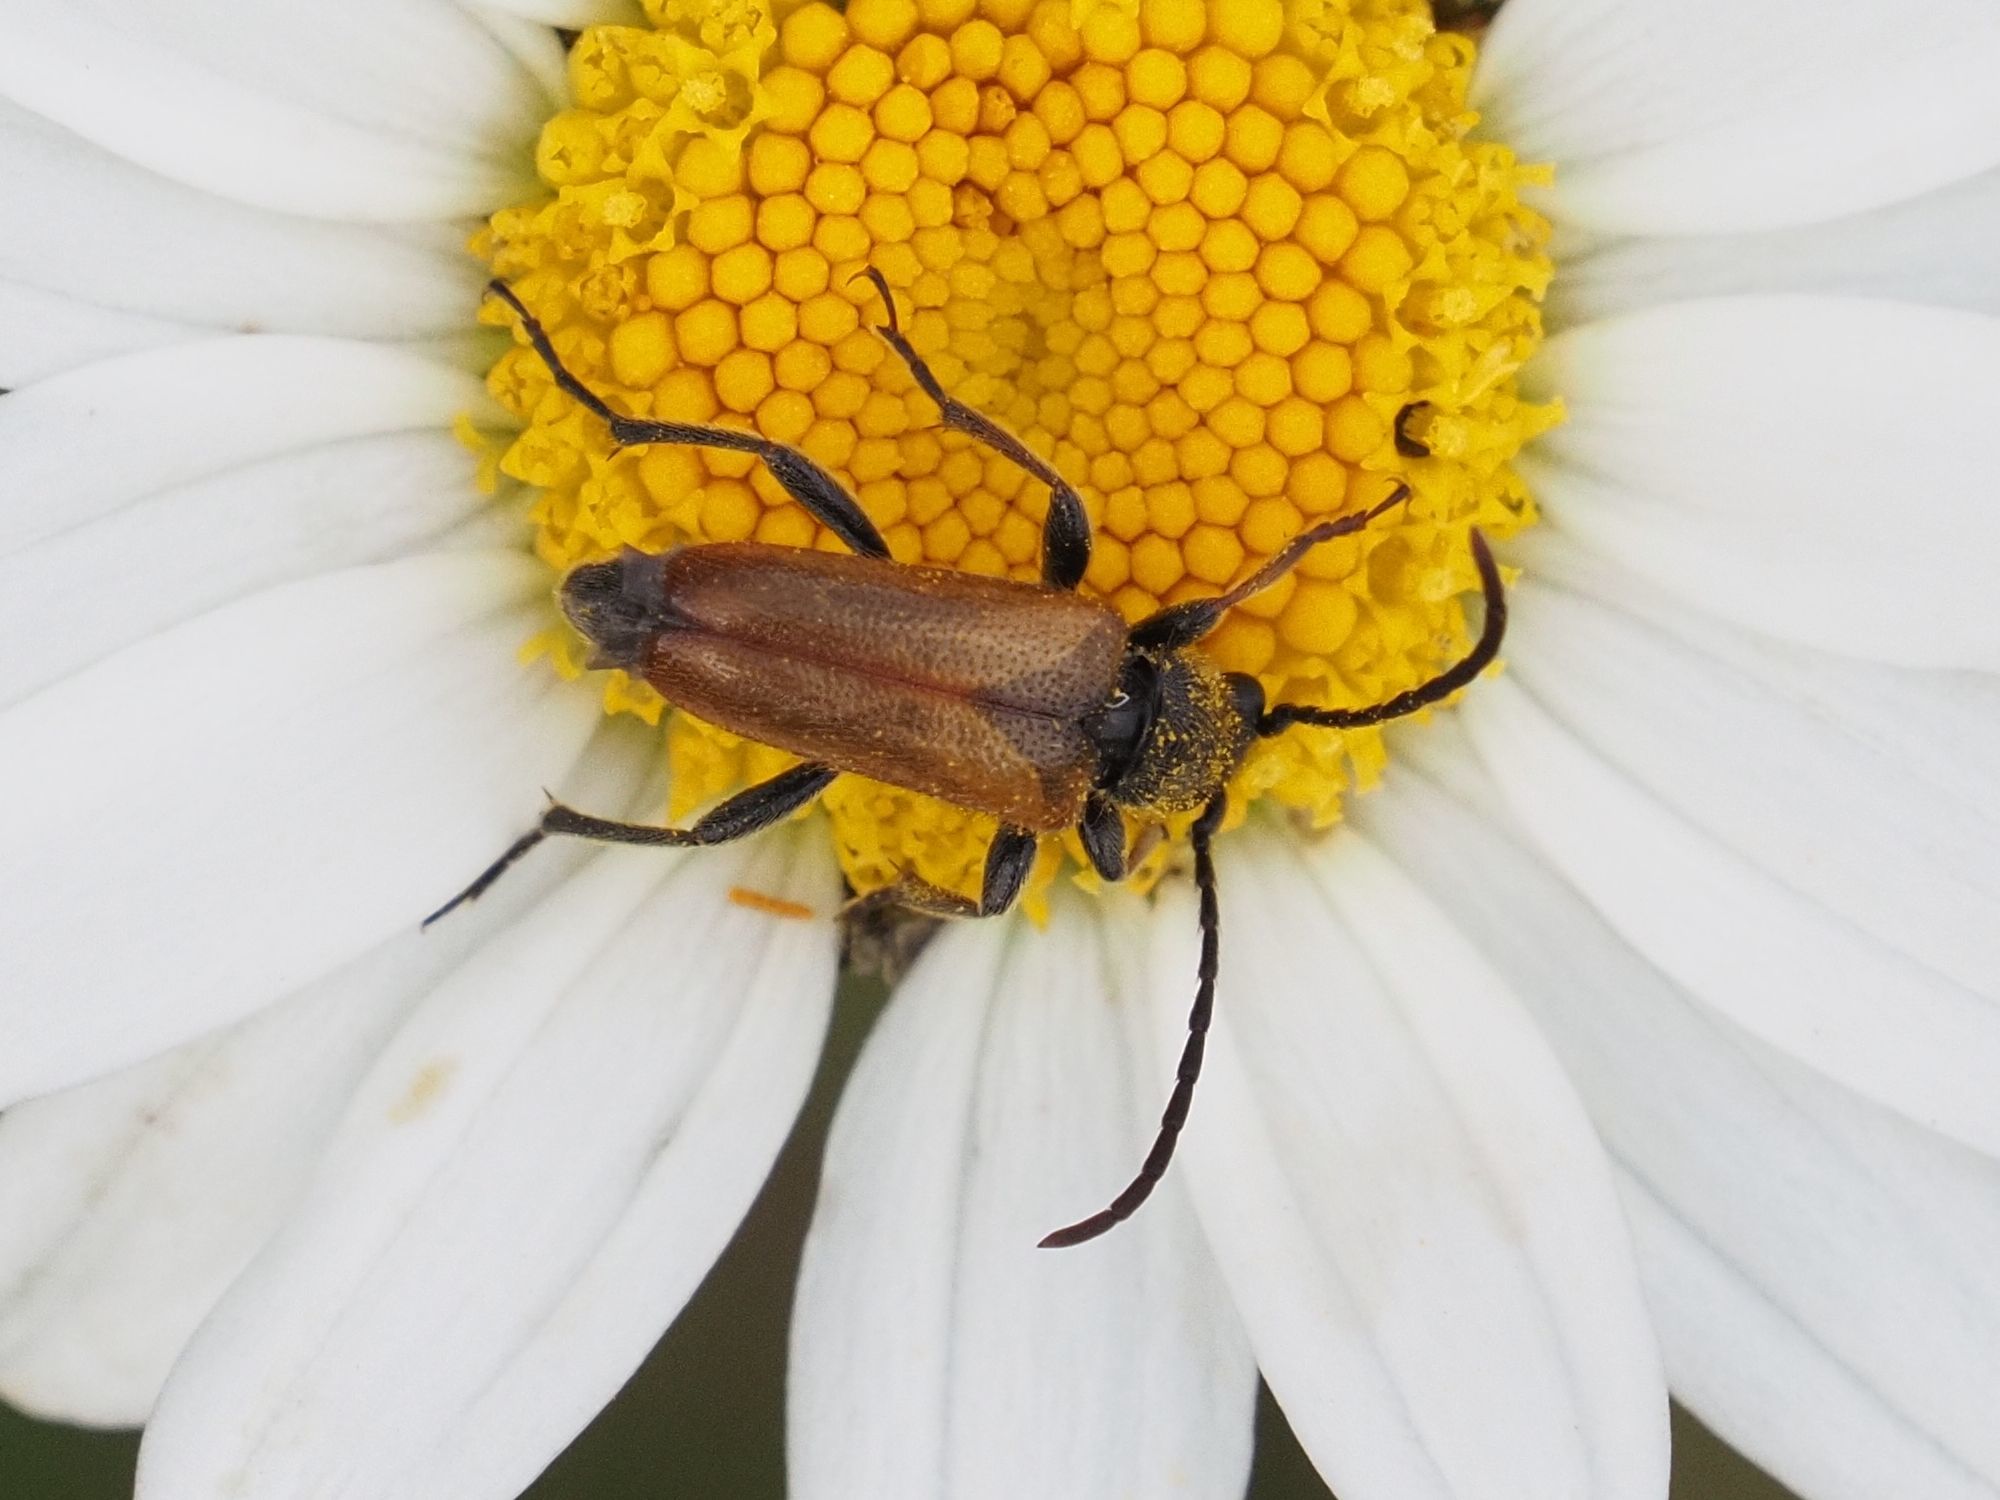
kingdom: Animalia
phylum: Arthropoda
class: Insecta
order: Coleoptera
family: Cerambycidae
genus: Pseudovadonia
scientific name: Pseudovadonia livida
